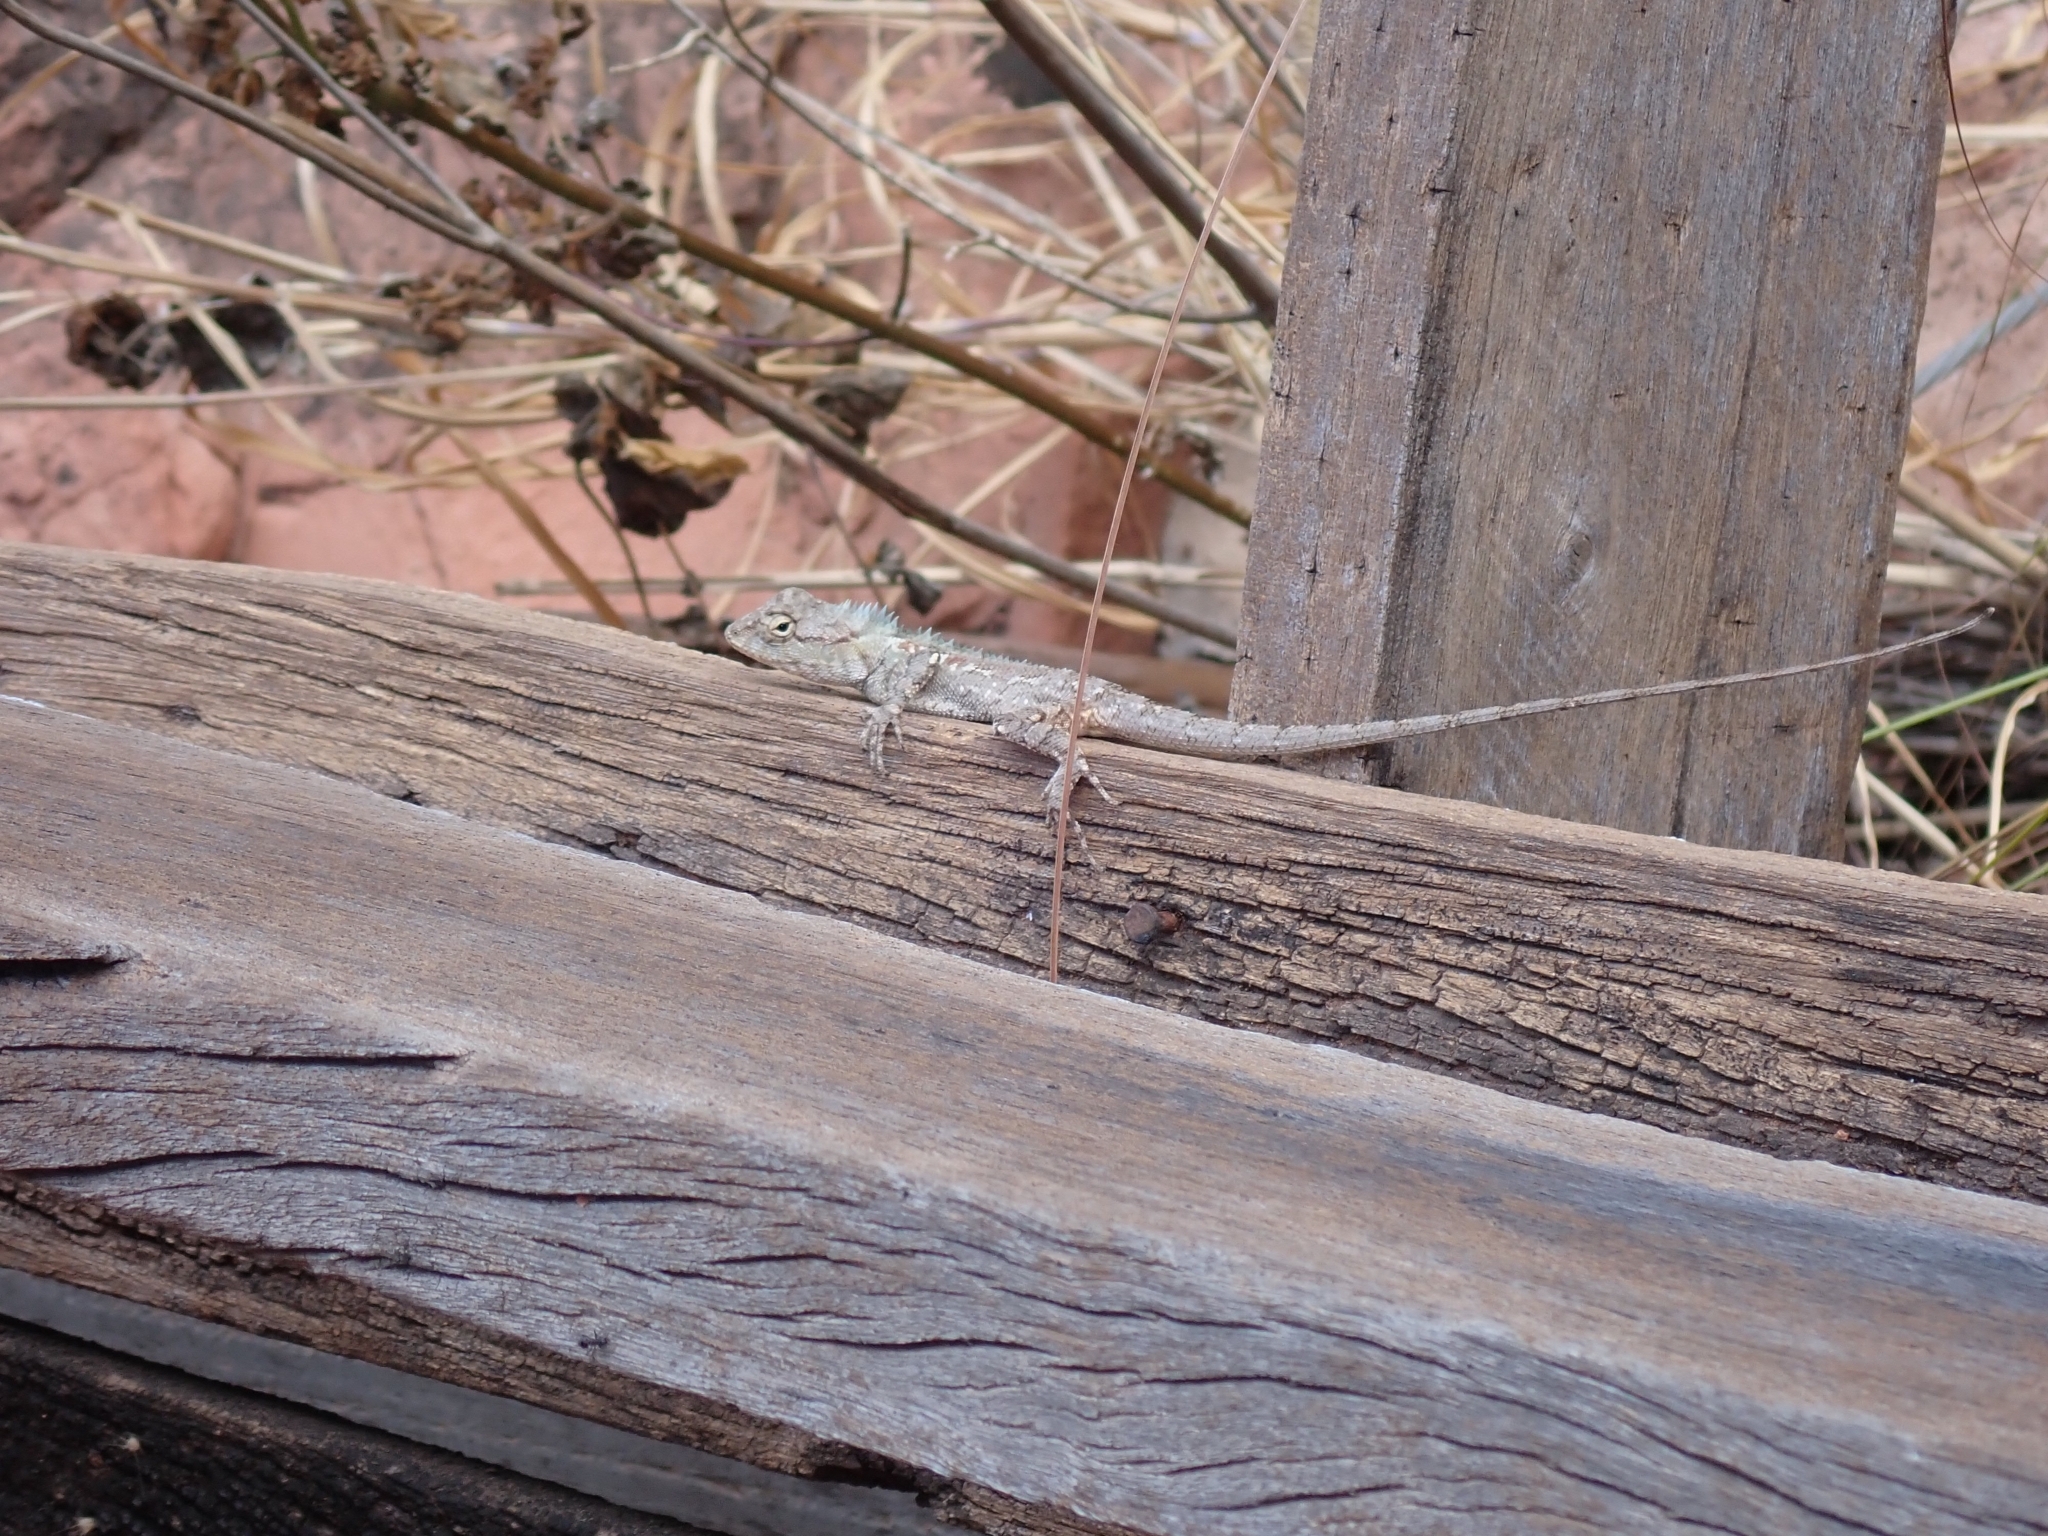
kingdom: Animalia
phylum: Chordata
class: Squamata
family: Agamidae
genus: Calotes
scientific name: Calotes goetzi
